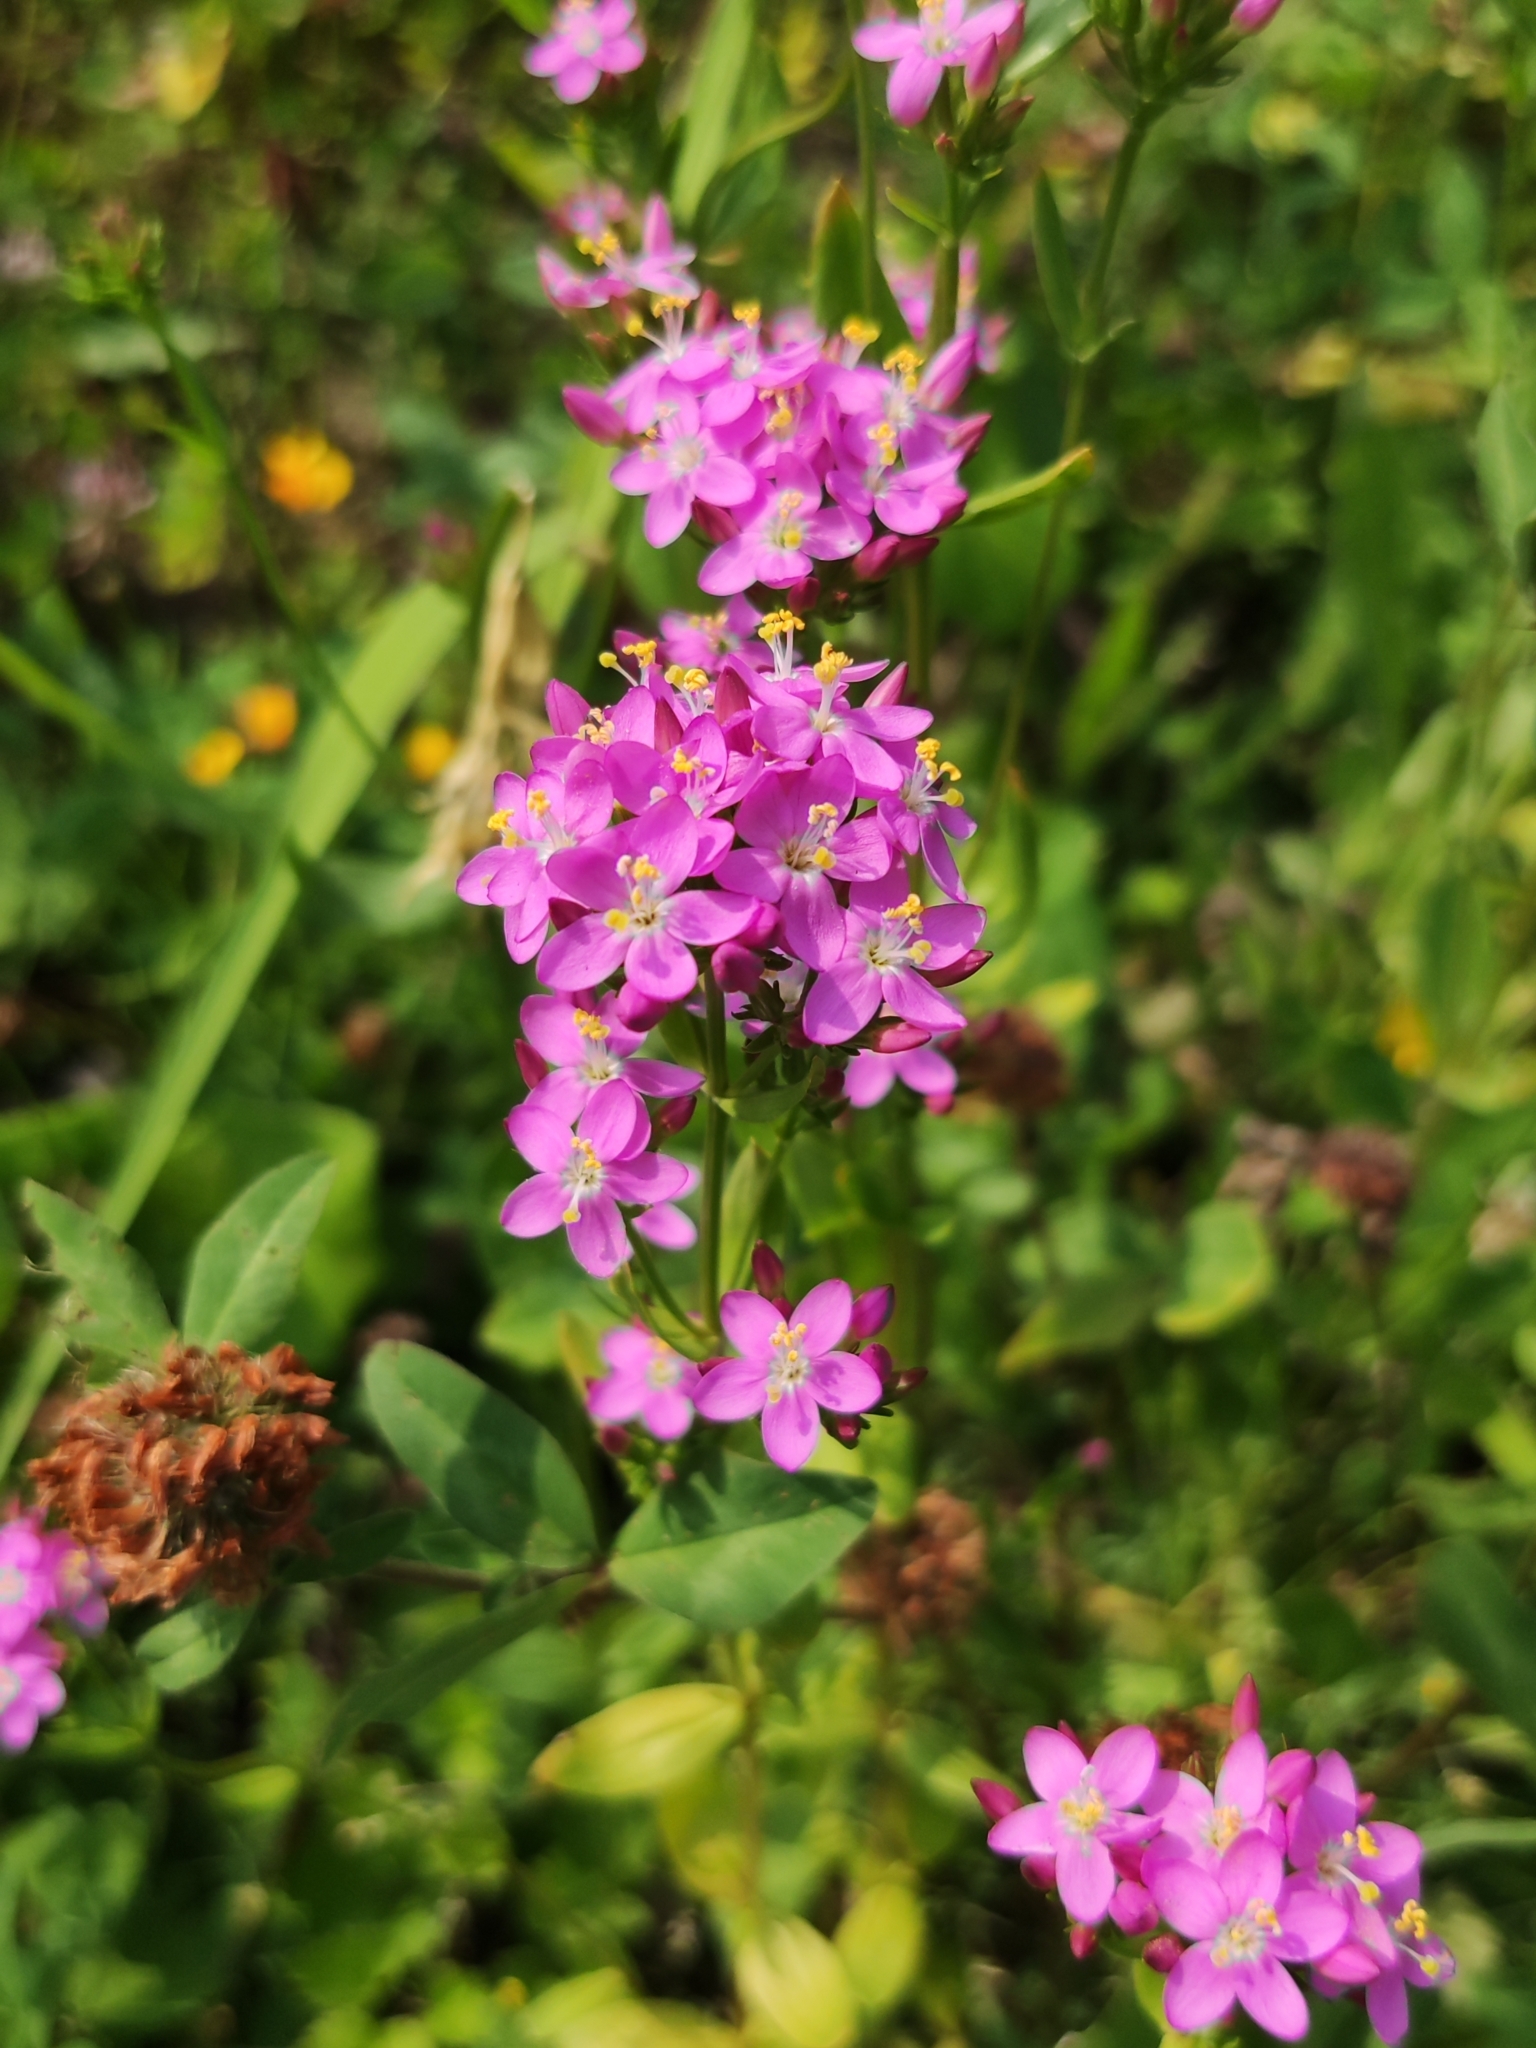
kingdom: Plantae
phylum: Tracheophyta
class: Magnoliopsida
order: Gentianales
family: Gentianaceae
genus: Centaurium
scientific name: Centaurium erythraea
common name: Common centaury
